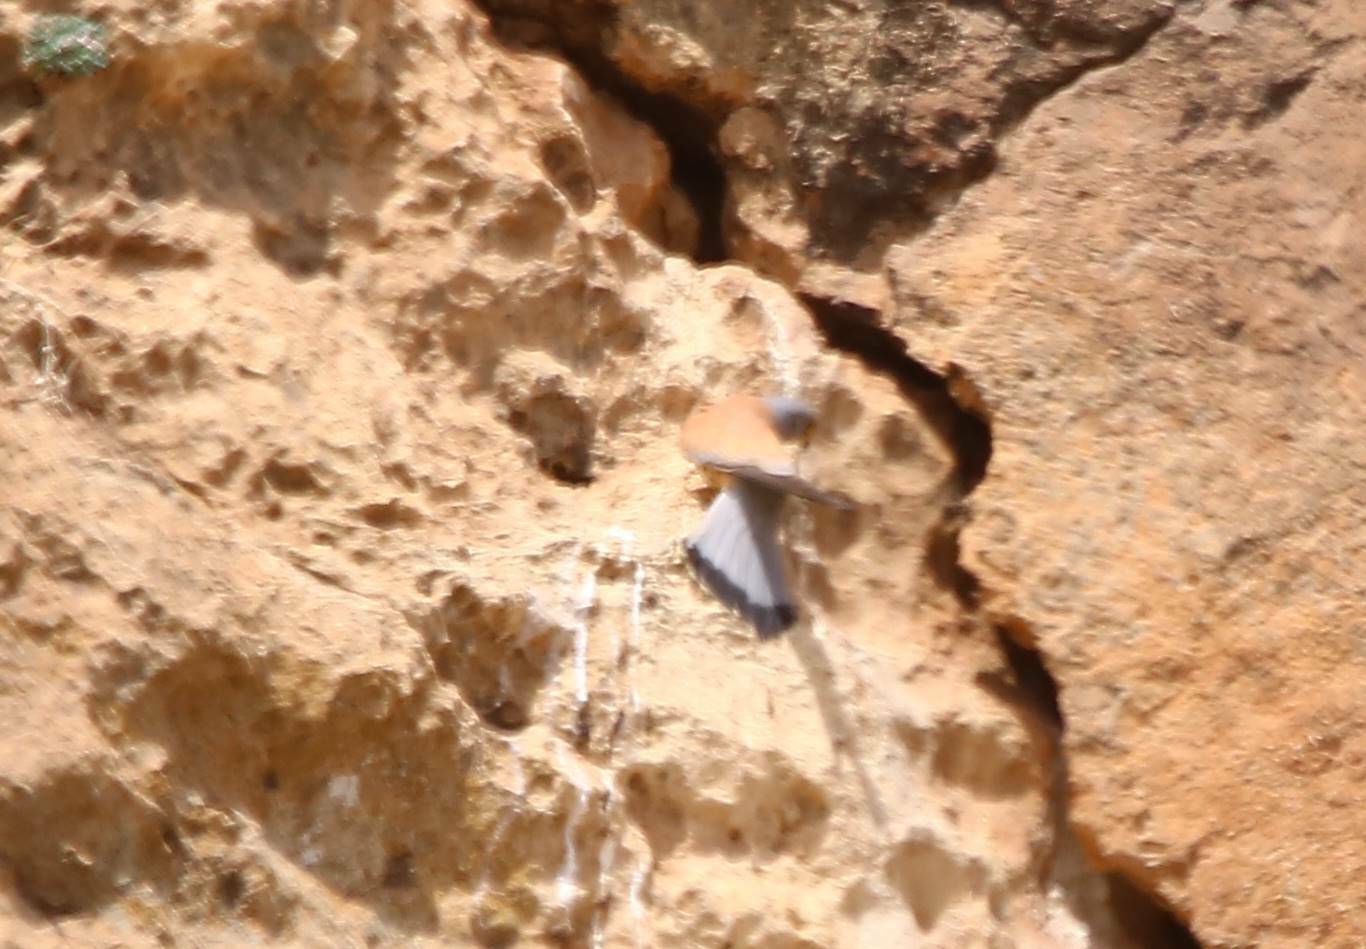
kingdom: Animalia
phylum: Chordata
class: Aves
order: Falconiformes
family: Falconidae
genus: Falco
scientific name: Falco naumanni
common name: Lesser kestrel
